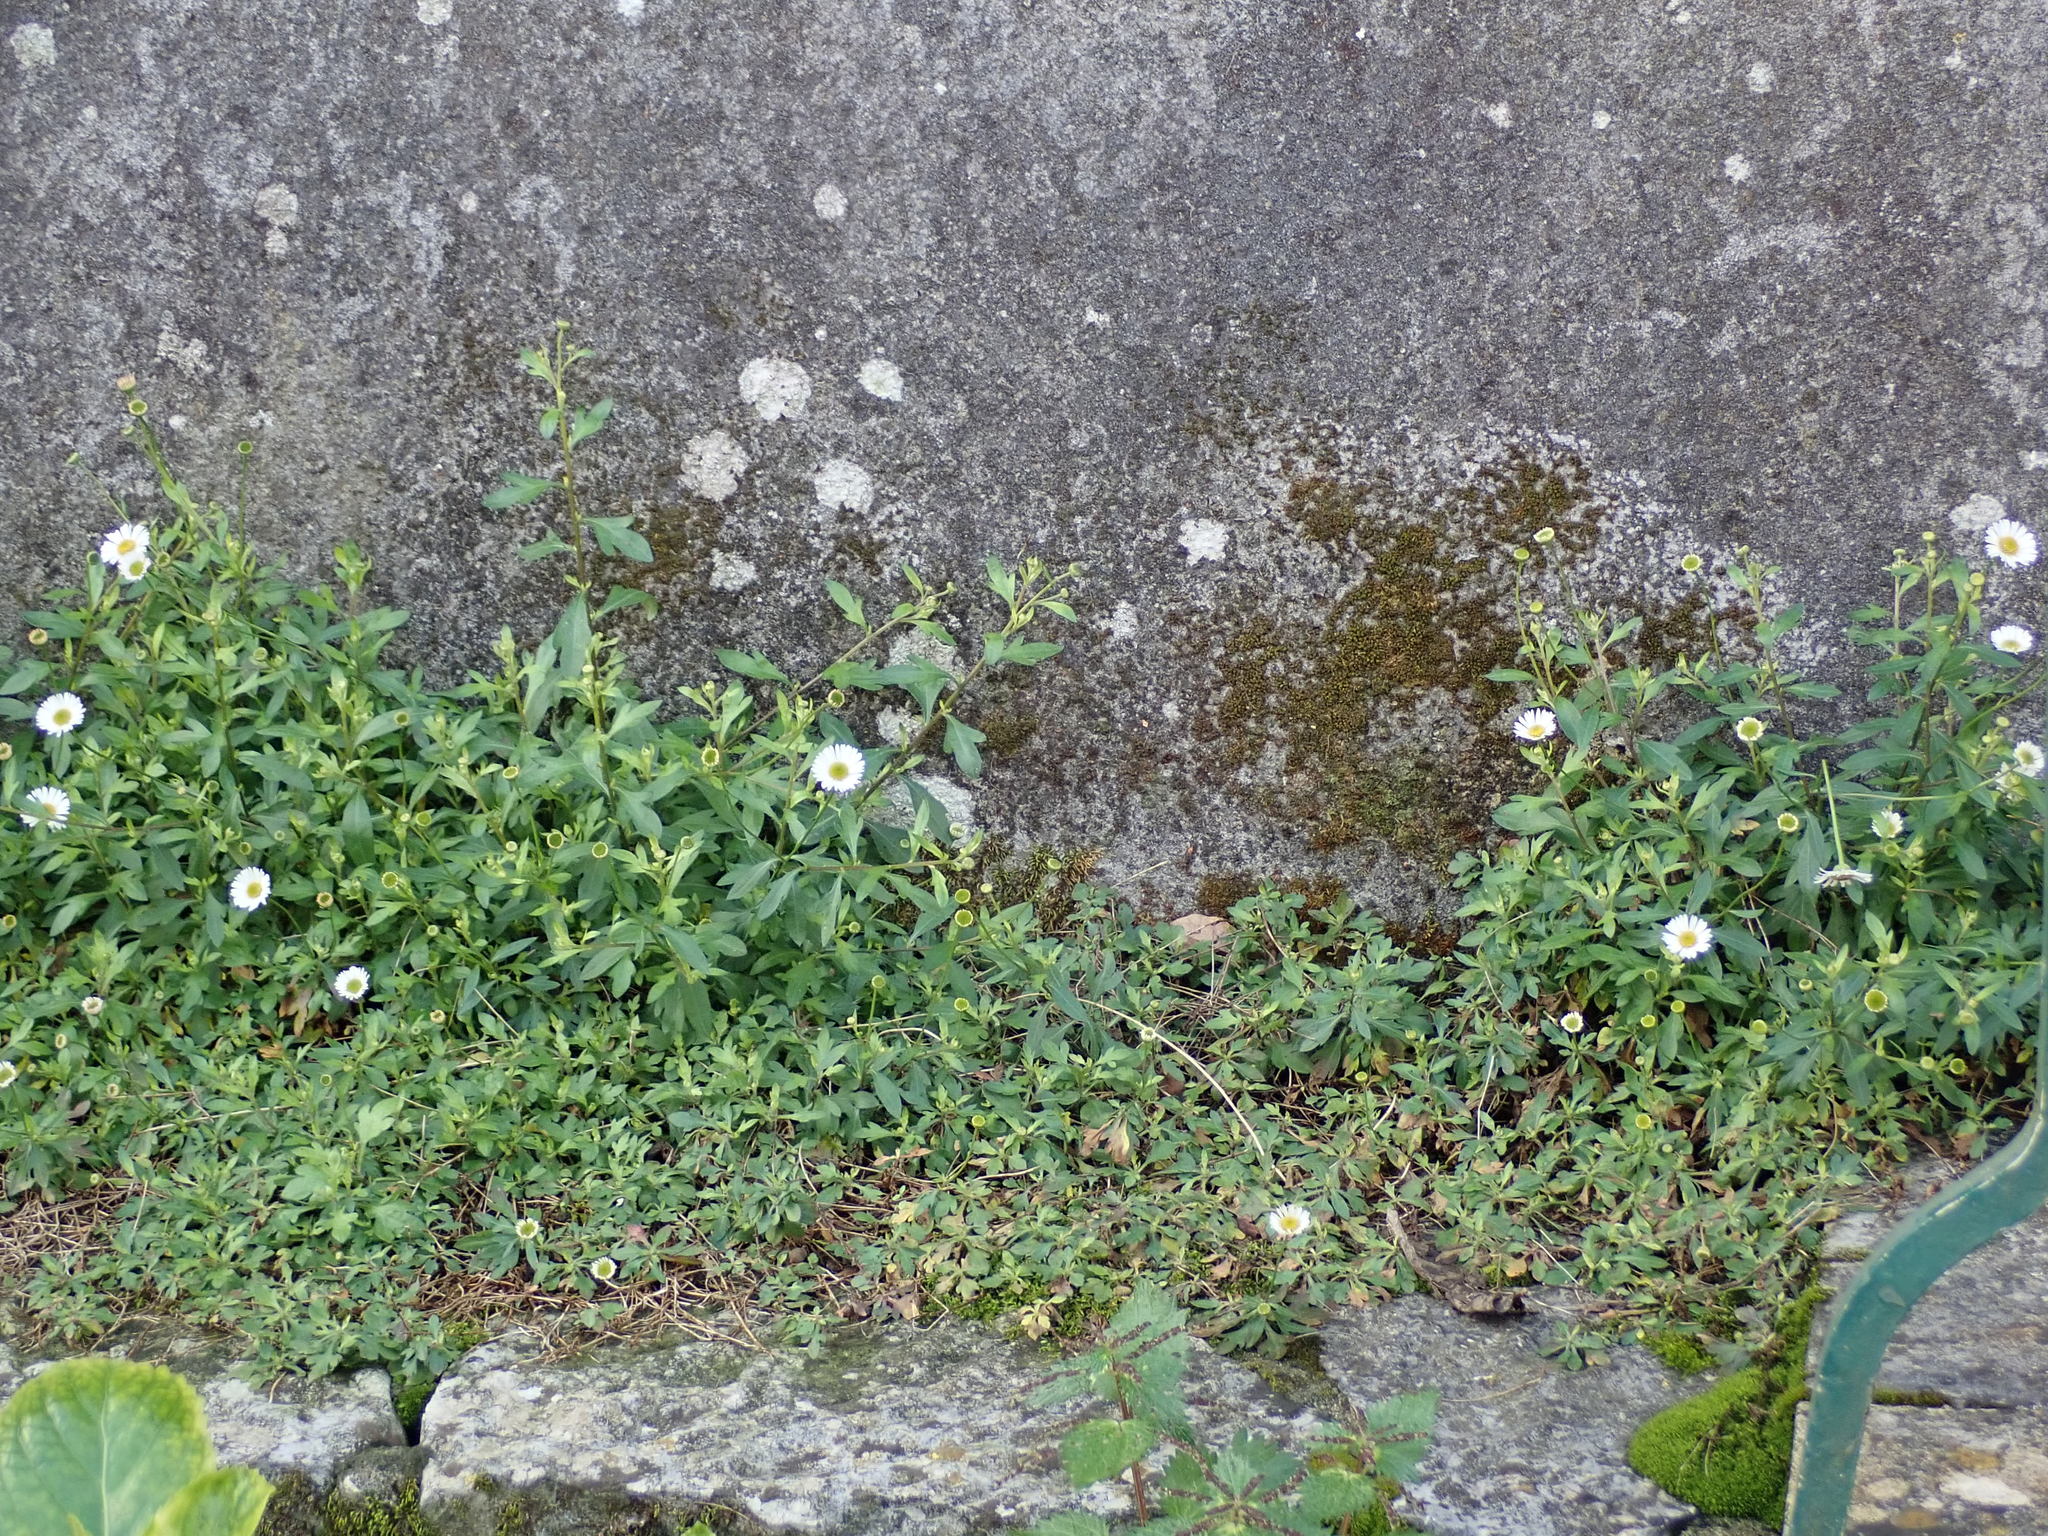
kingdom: Plantae
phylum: Tracheophyta
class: Magnoliopsida
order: Asterales
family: Asteraceae
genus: Erigeron
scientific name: Erigeron karvinskianus
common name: Mexican fleabane
